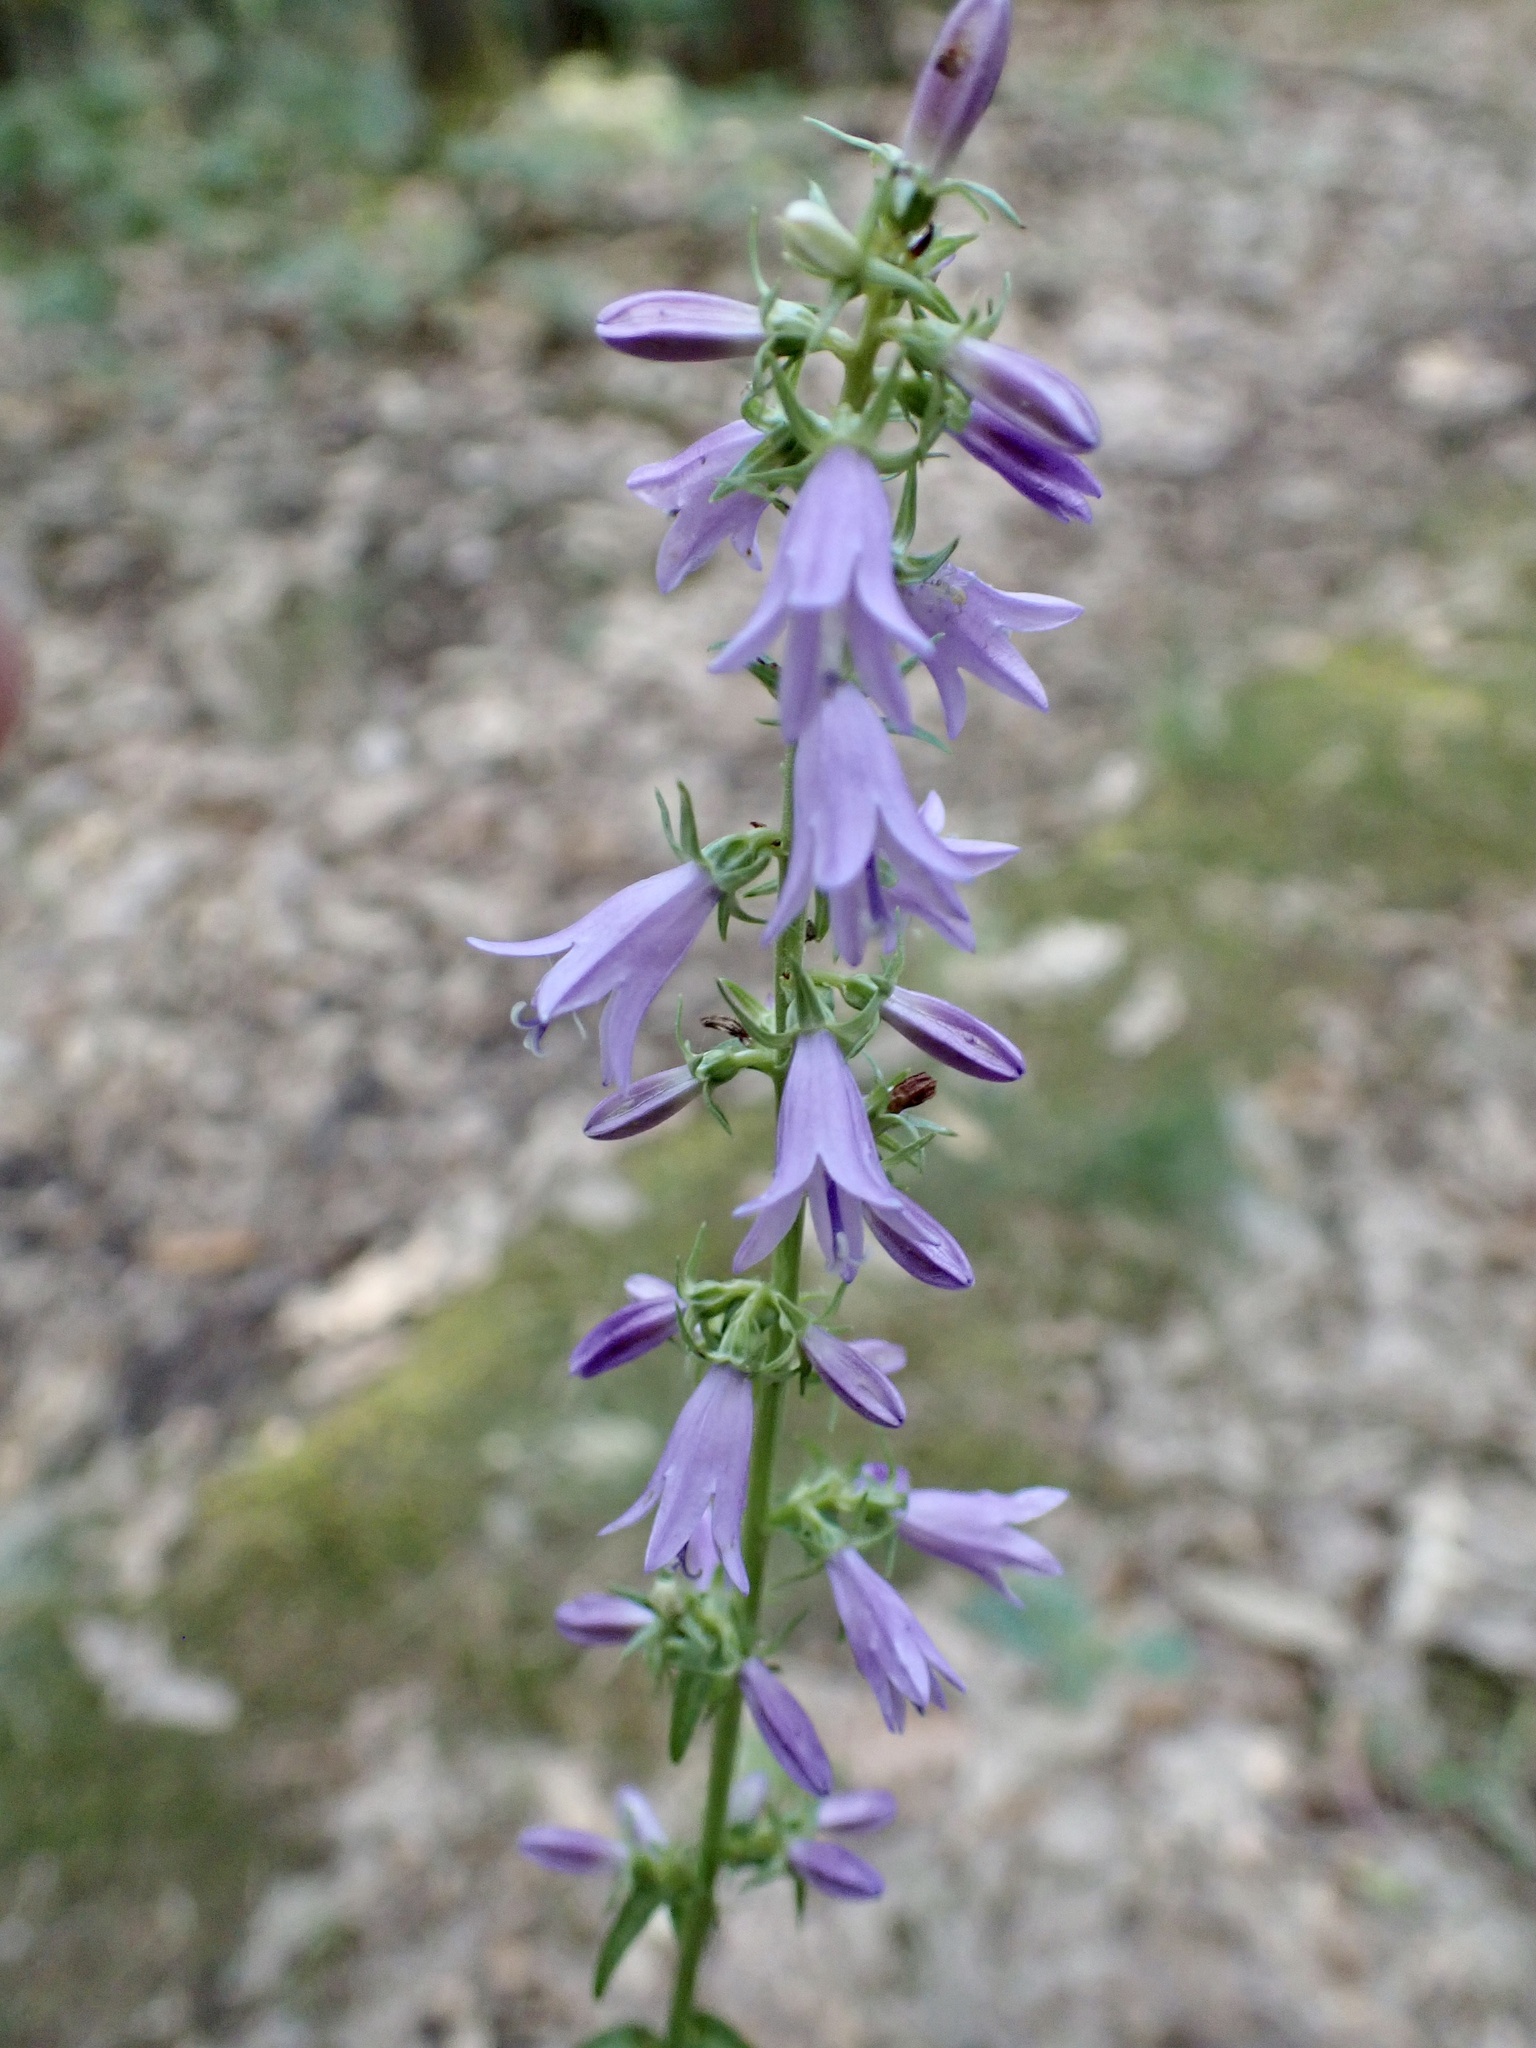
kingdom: Plantae
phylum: Tracheophyta
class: Magnoliopsida
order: Asterales
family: Campanulaceae
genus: Campanula
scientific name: Campanula bononiensis
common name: Pale bellflower
